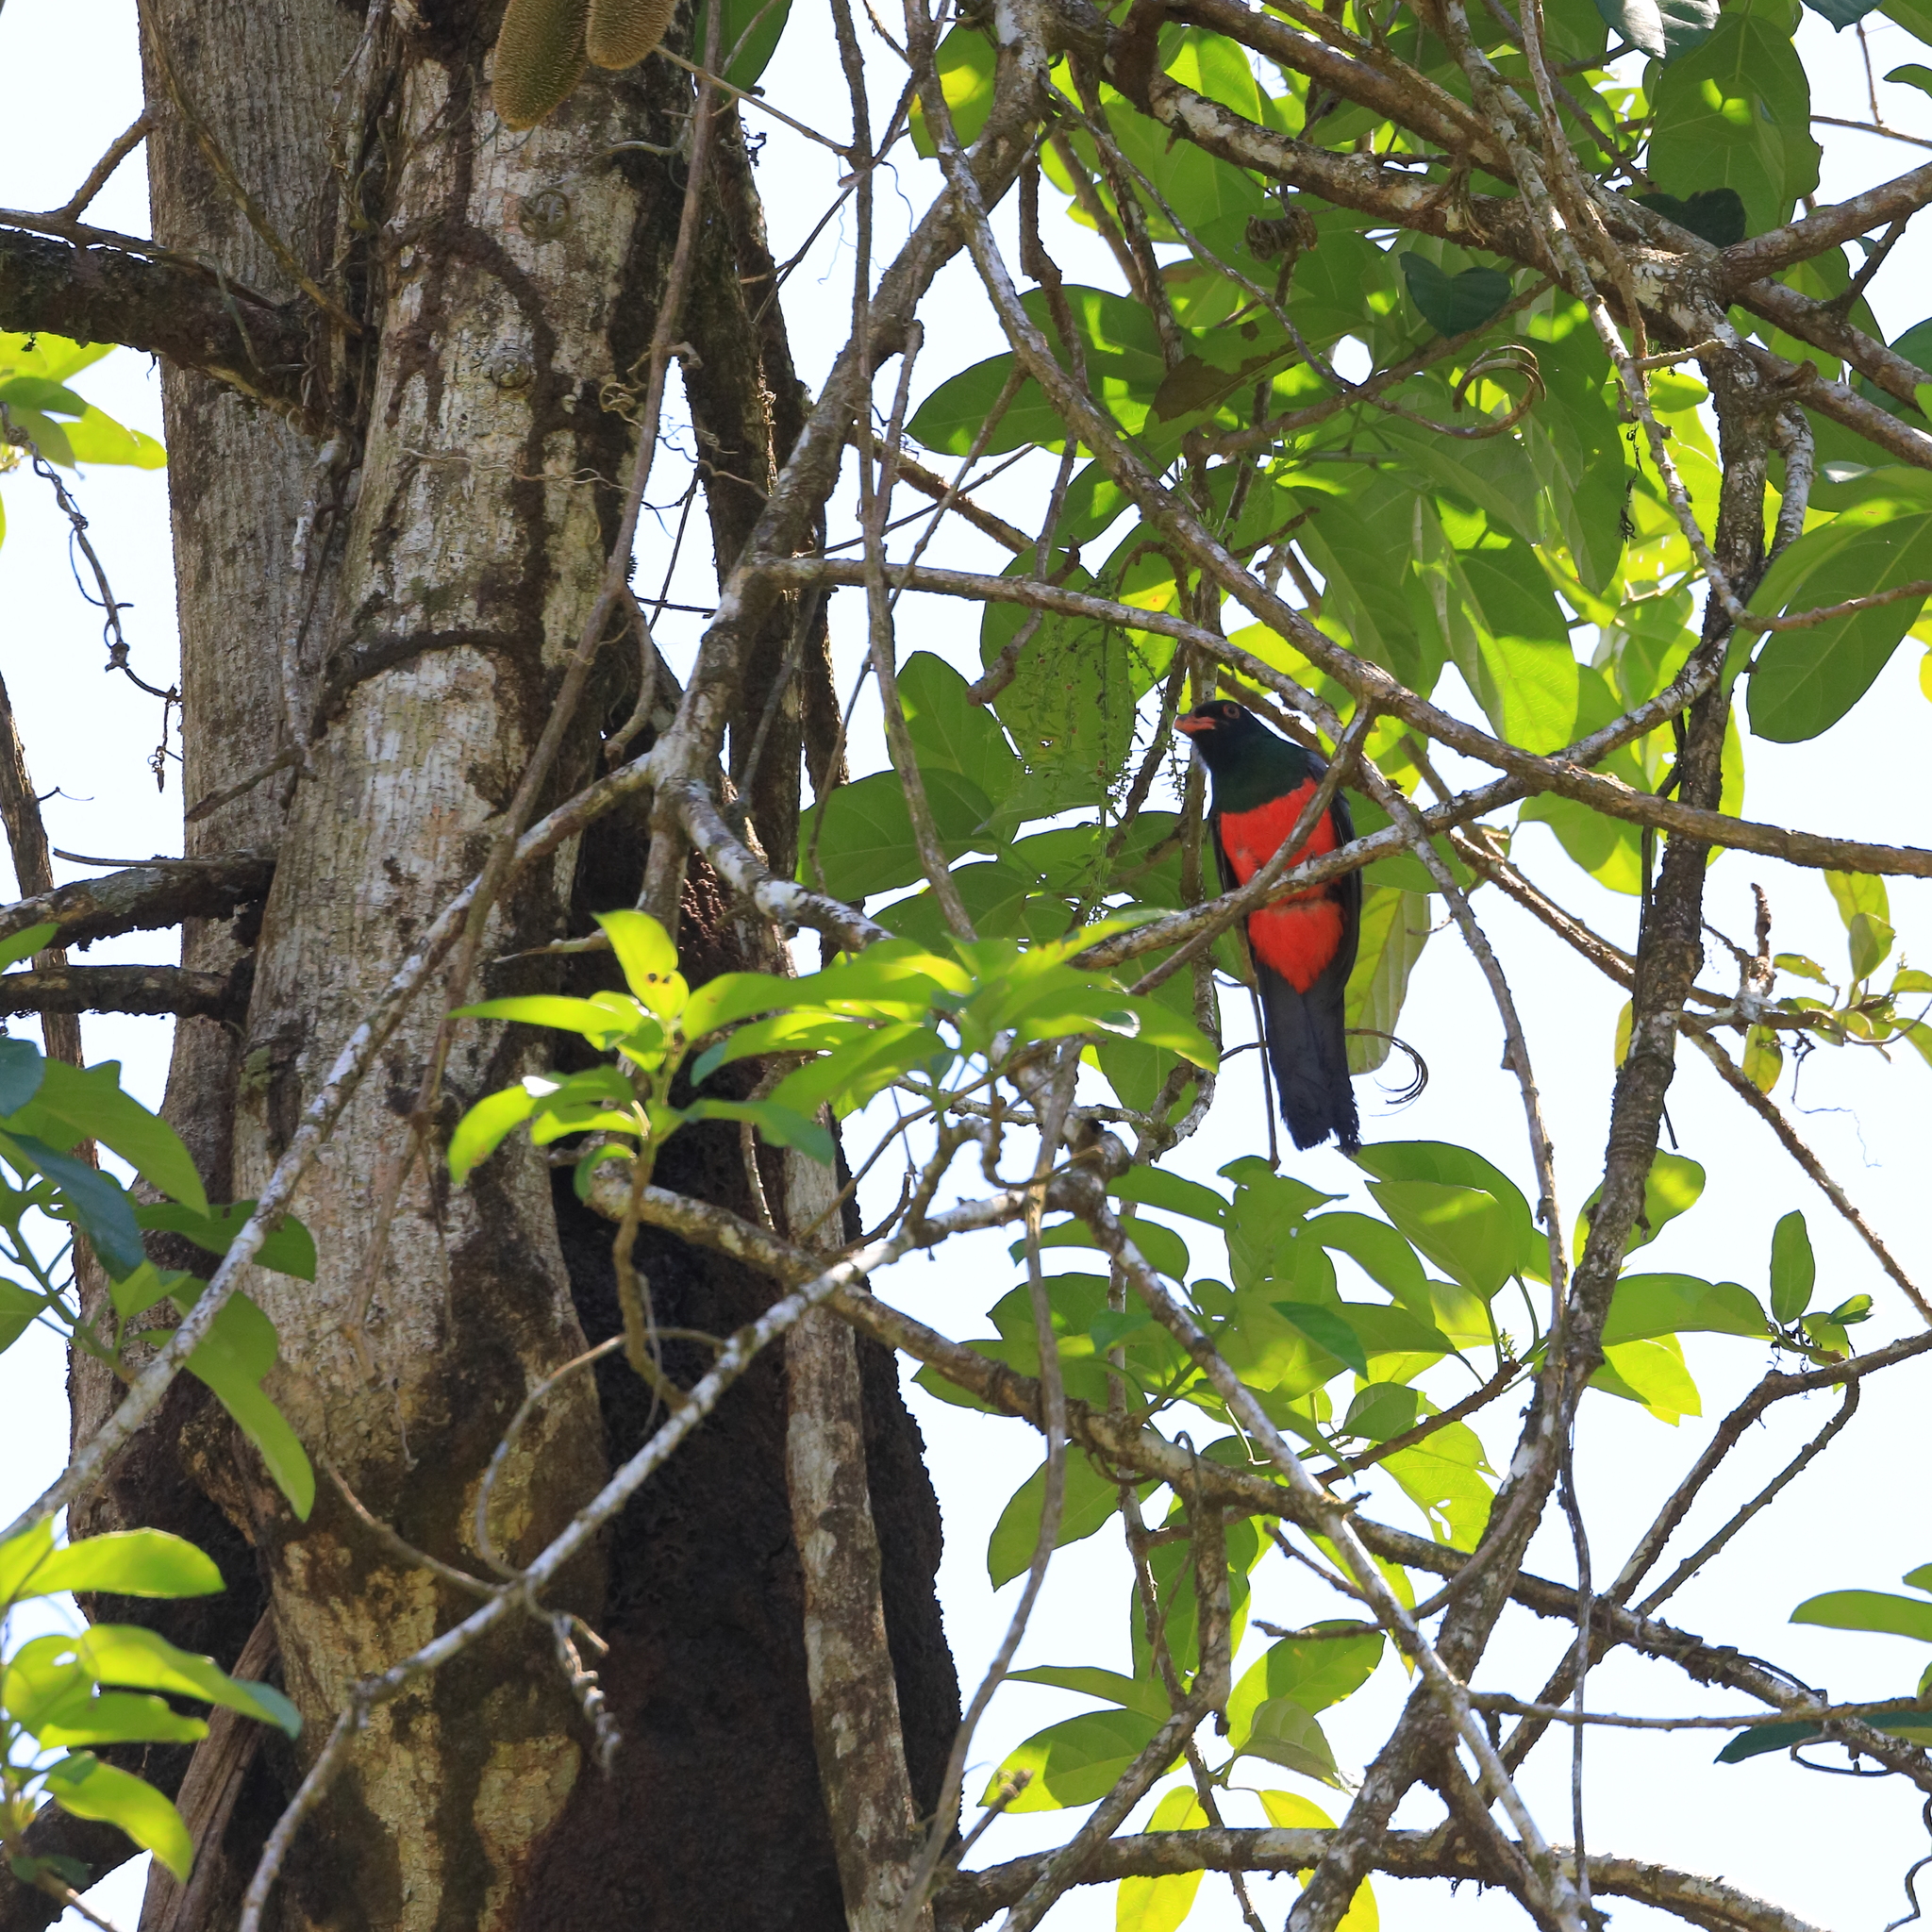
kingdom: Animalia
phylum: Chordata
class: Aves
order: Trogoniformes
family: Trogonidae
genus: Trogon
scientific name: Trogon massena
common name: Slaty-tailed trogon
